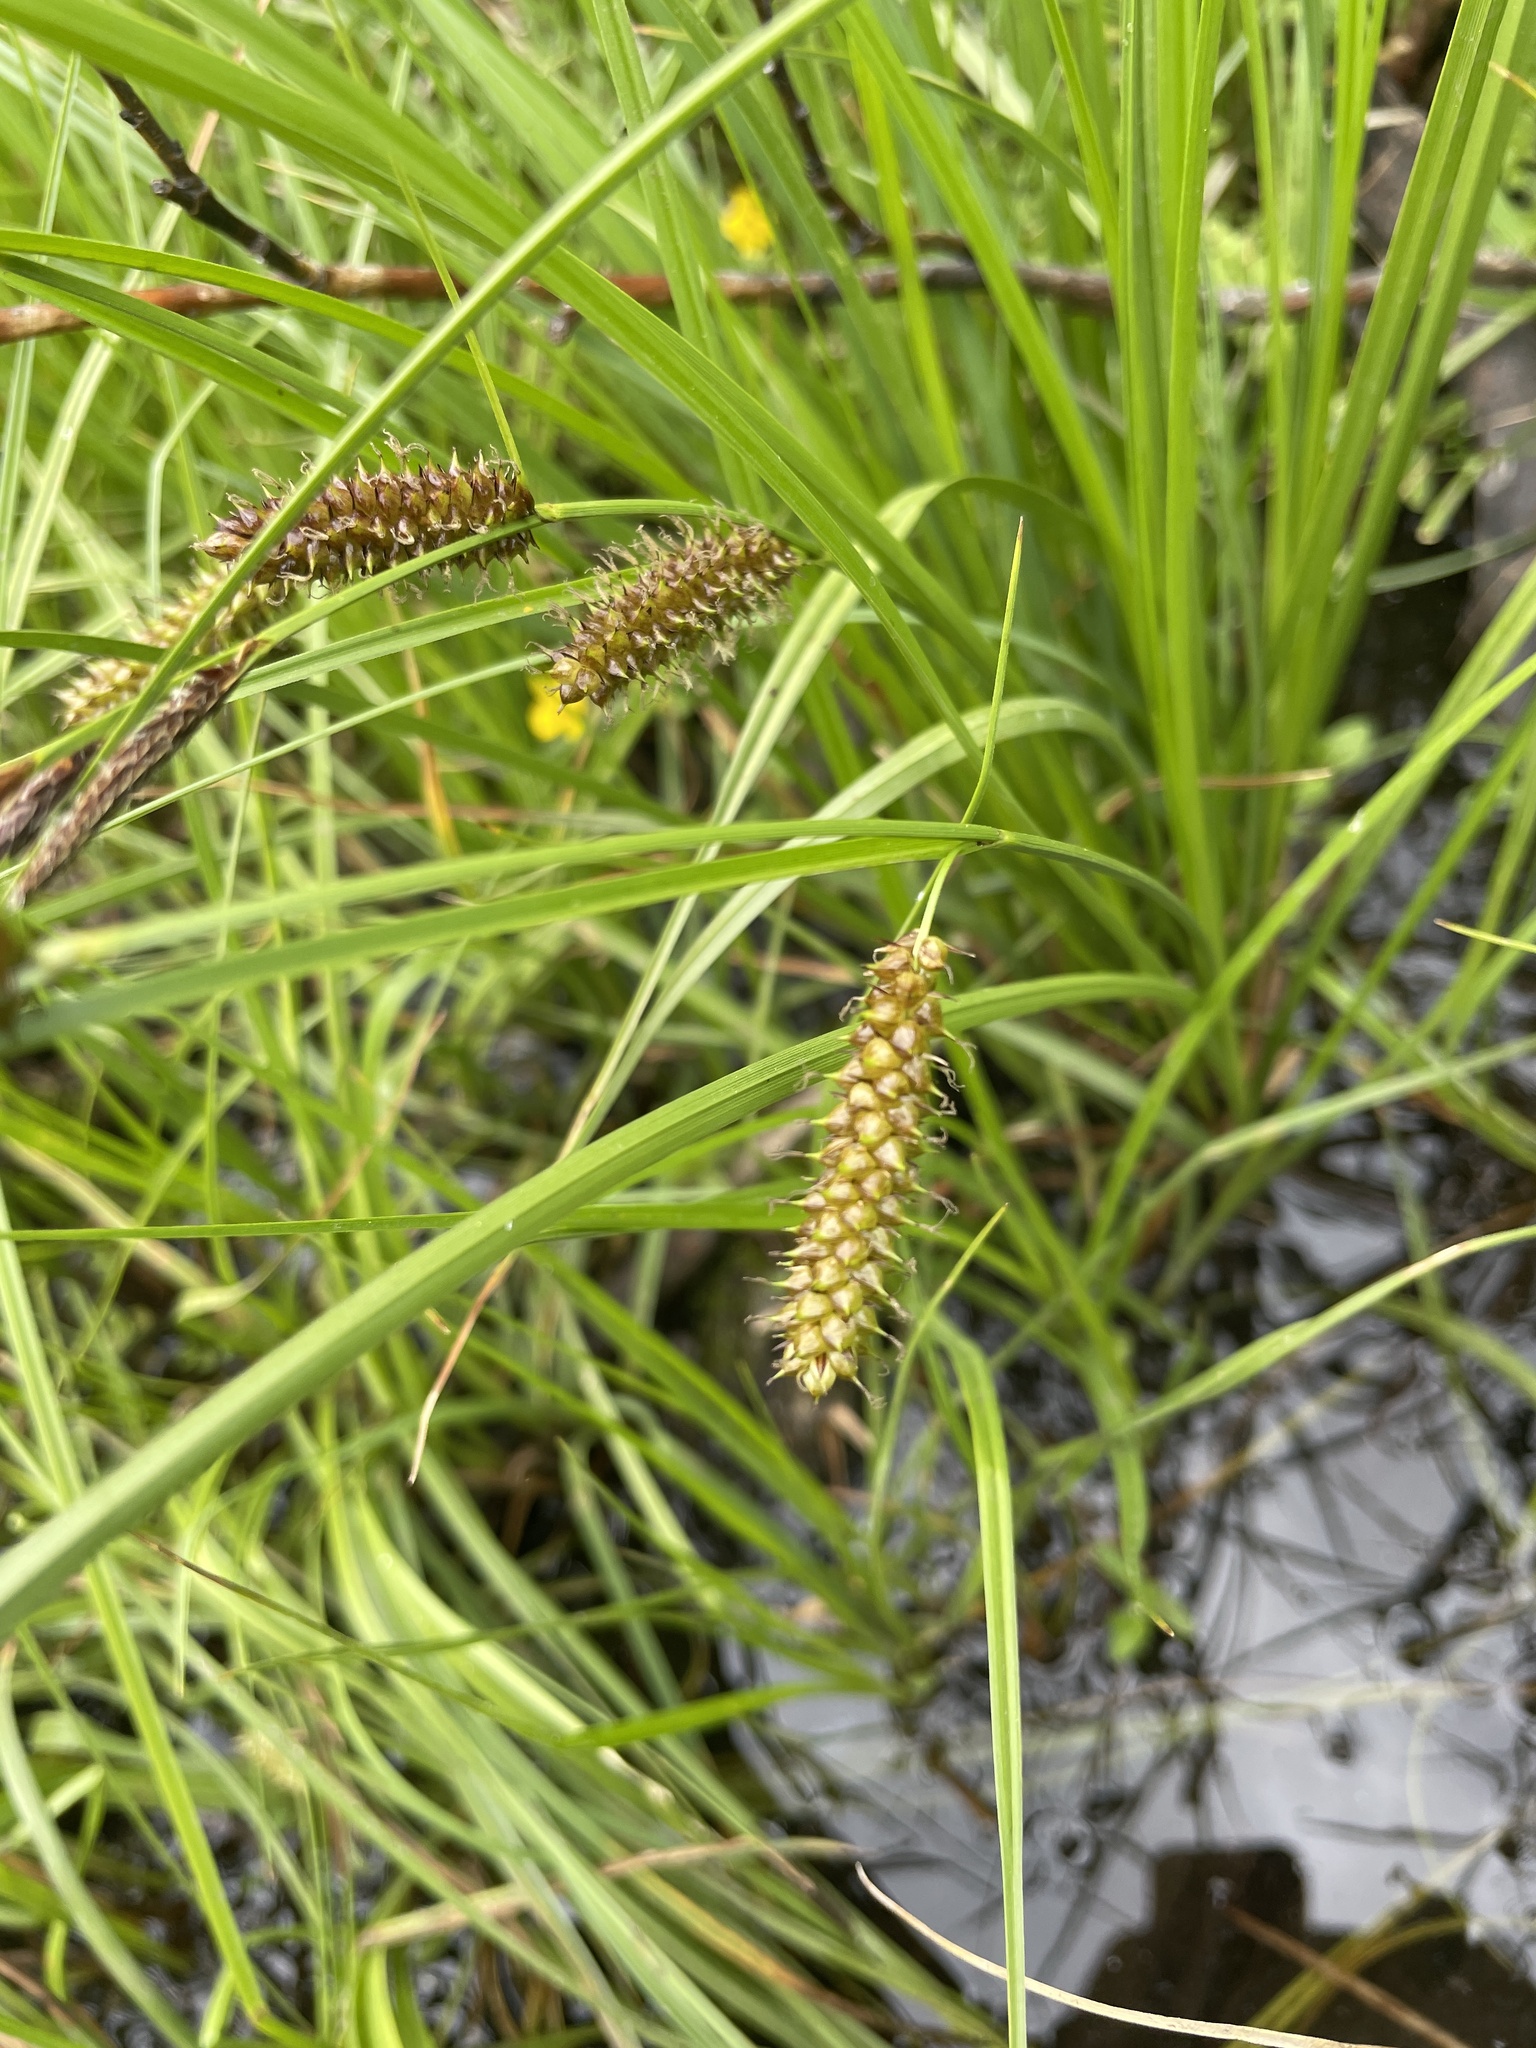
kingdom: Plantae
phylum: Tracheophyta
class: Liliopsida
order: Poales
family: Cyperaceae
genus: Carex
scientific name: Carex utriculata
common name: Beaked sedge
